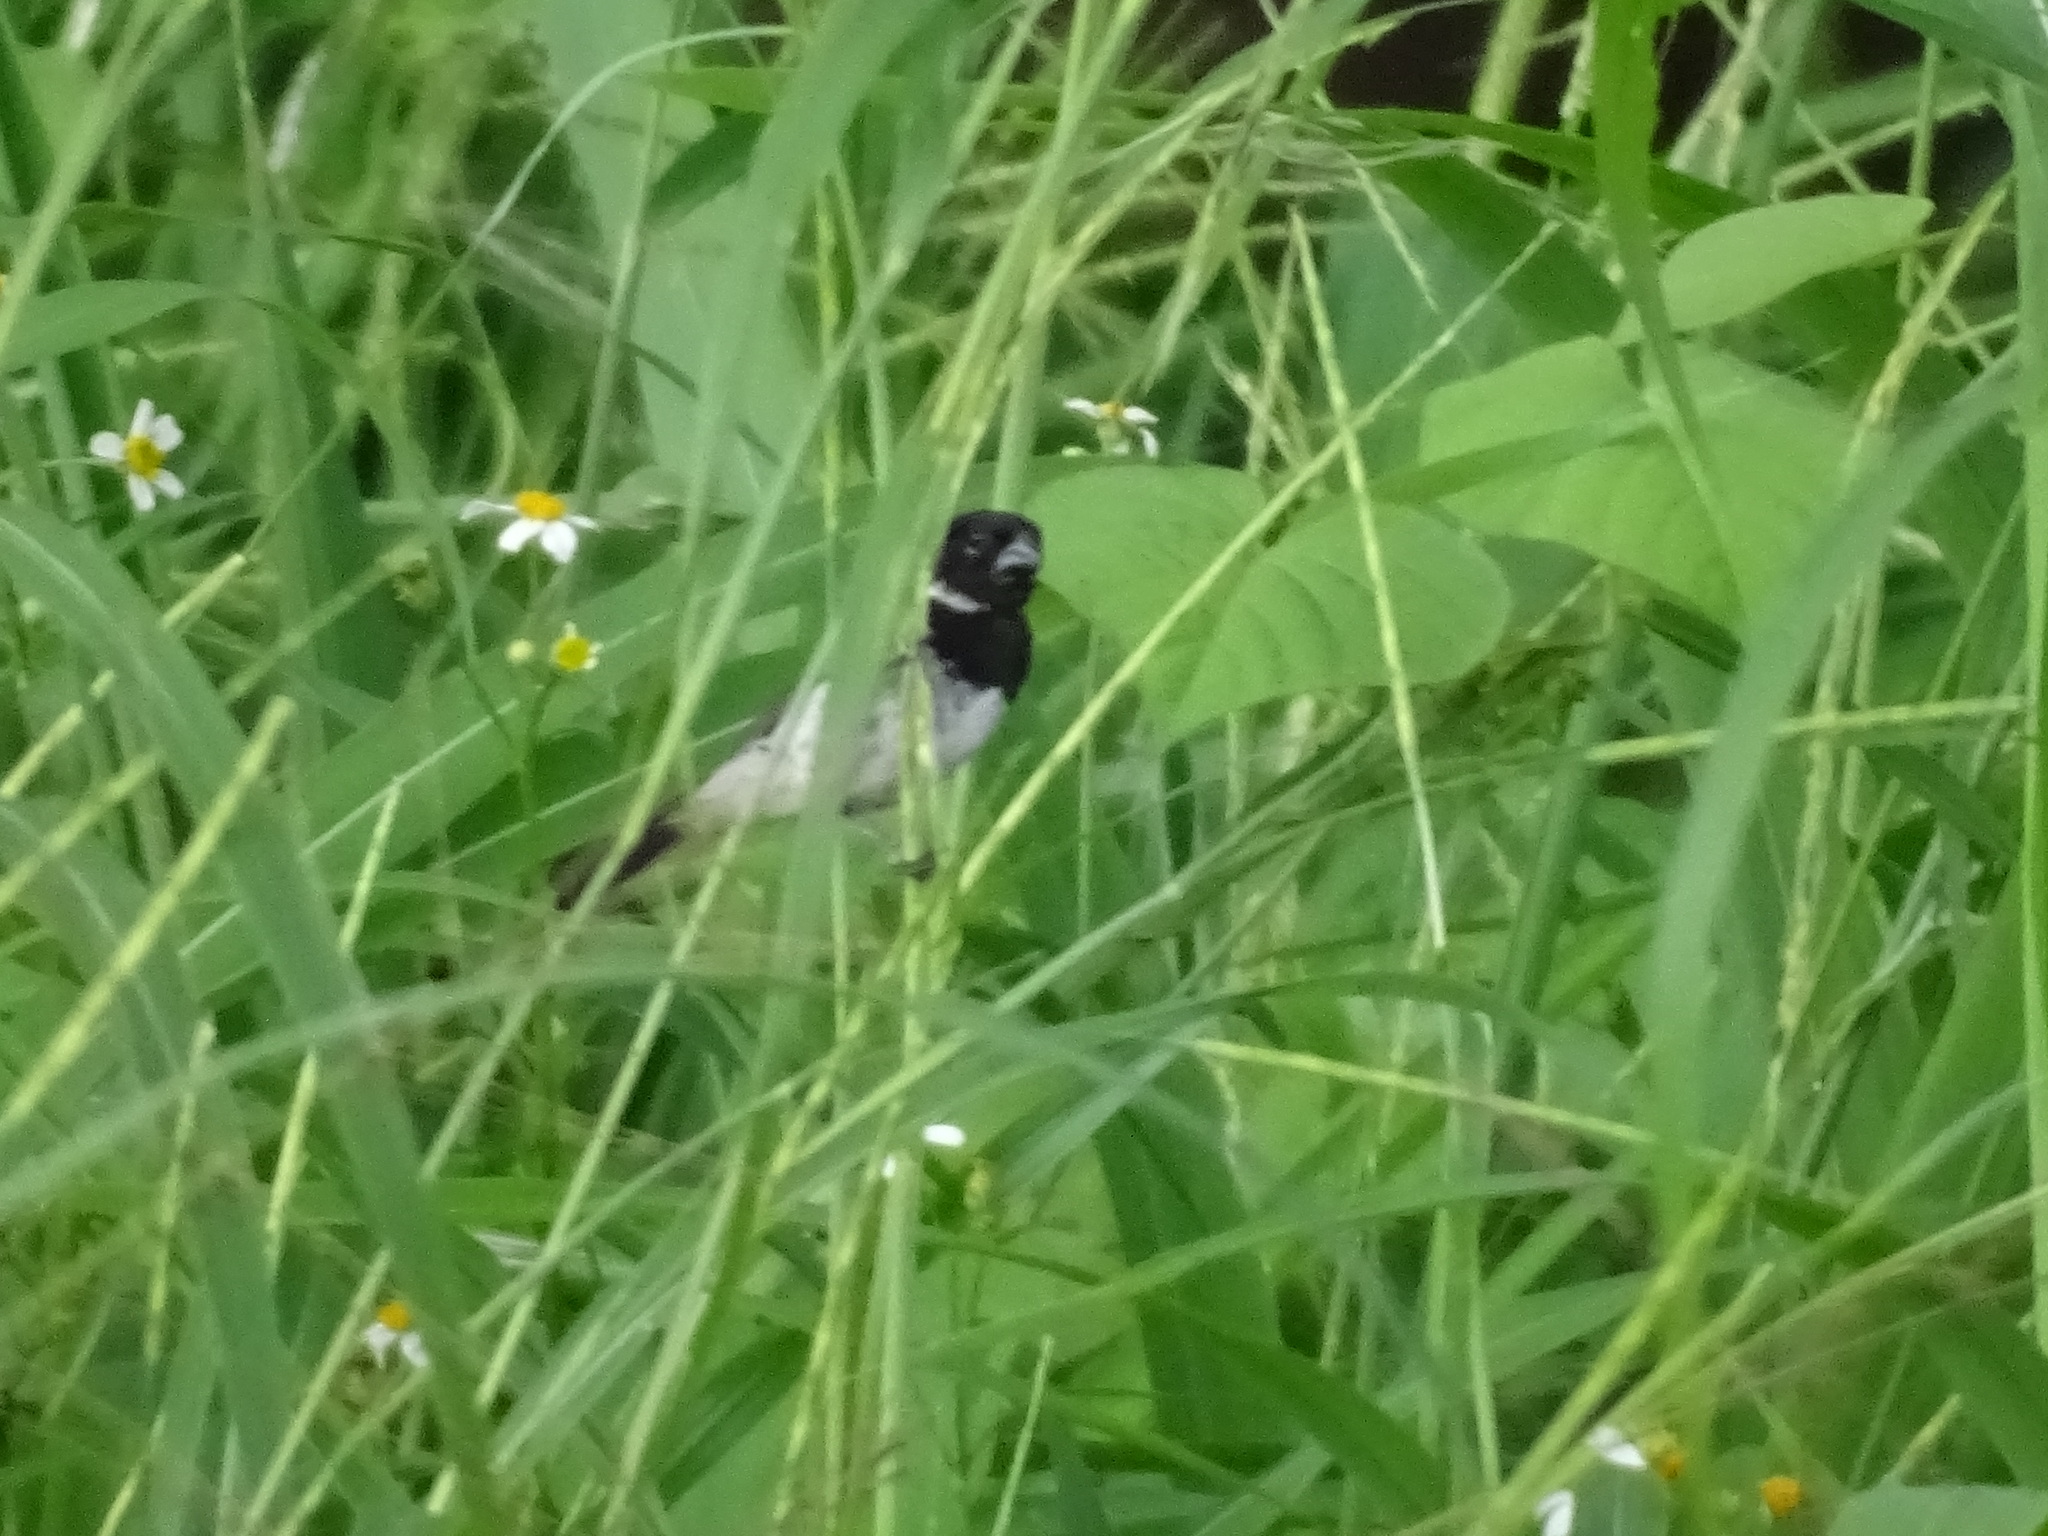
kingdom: Animalia
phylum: Chordata
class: Aves
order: Passeriformes
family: Thraupidae
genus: Sporophila
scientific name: Sporophila morelleti
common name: Morelet's seedeater
